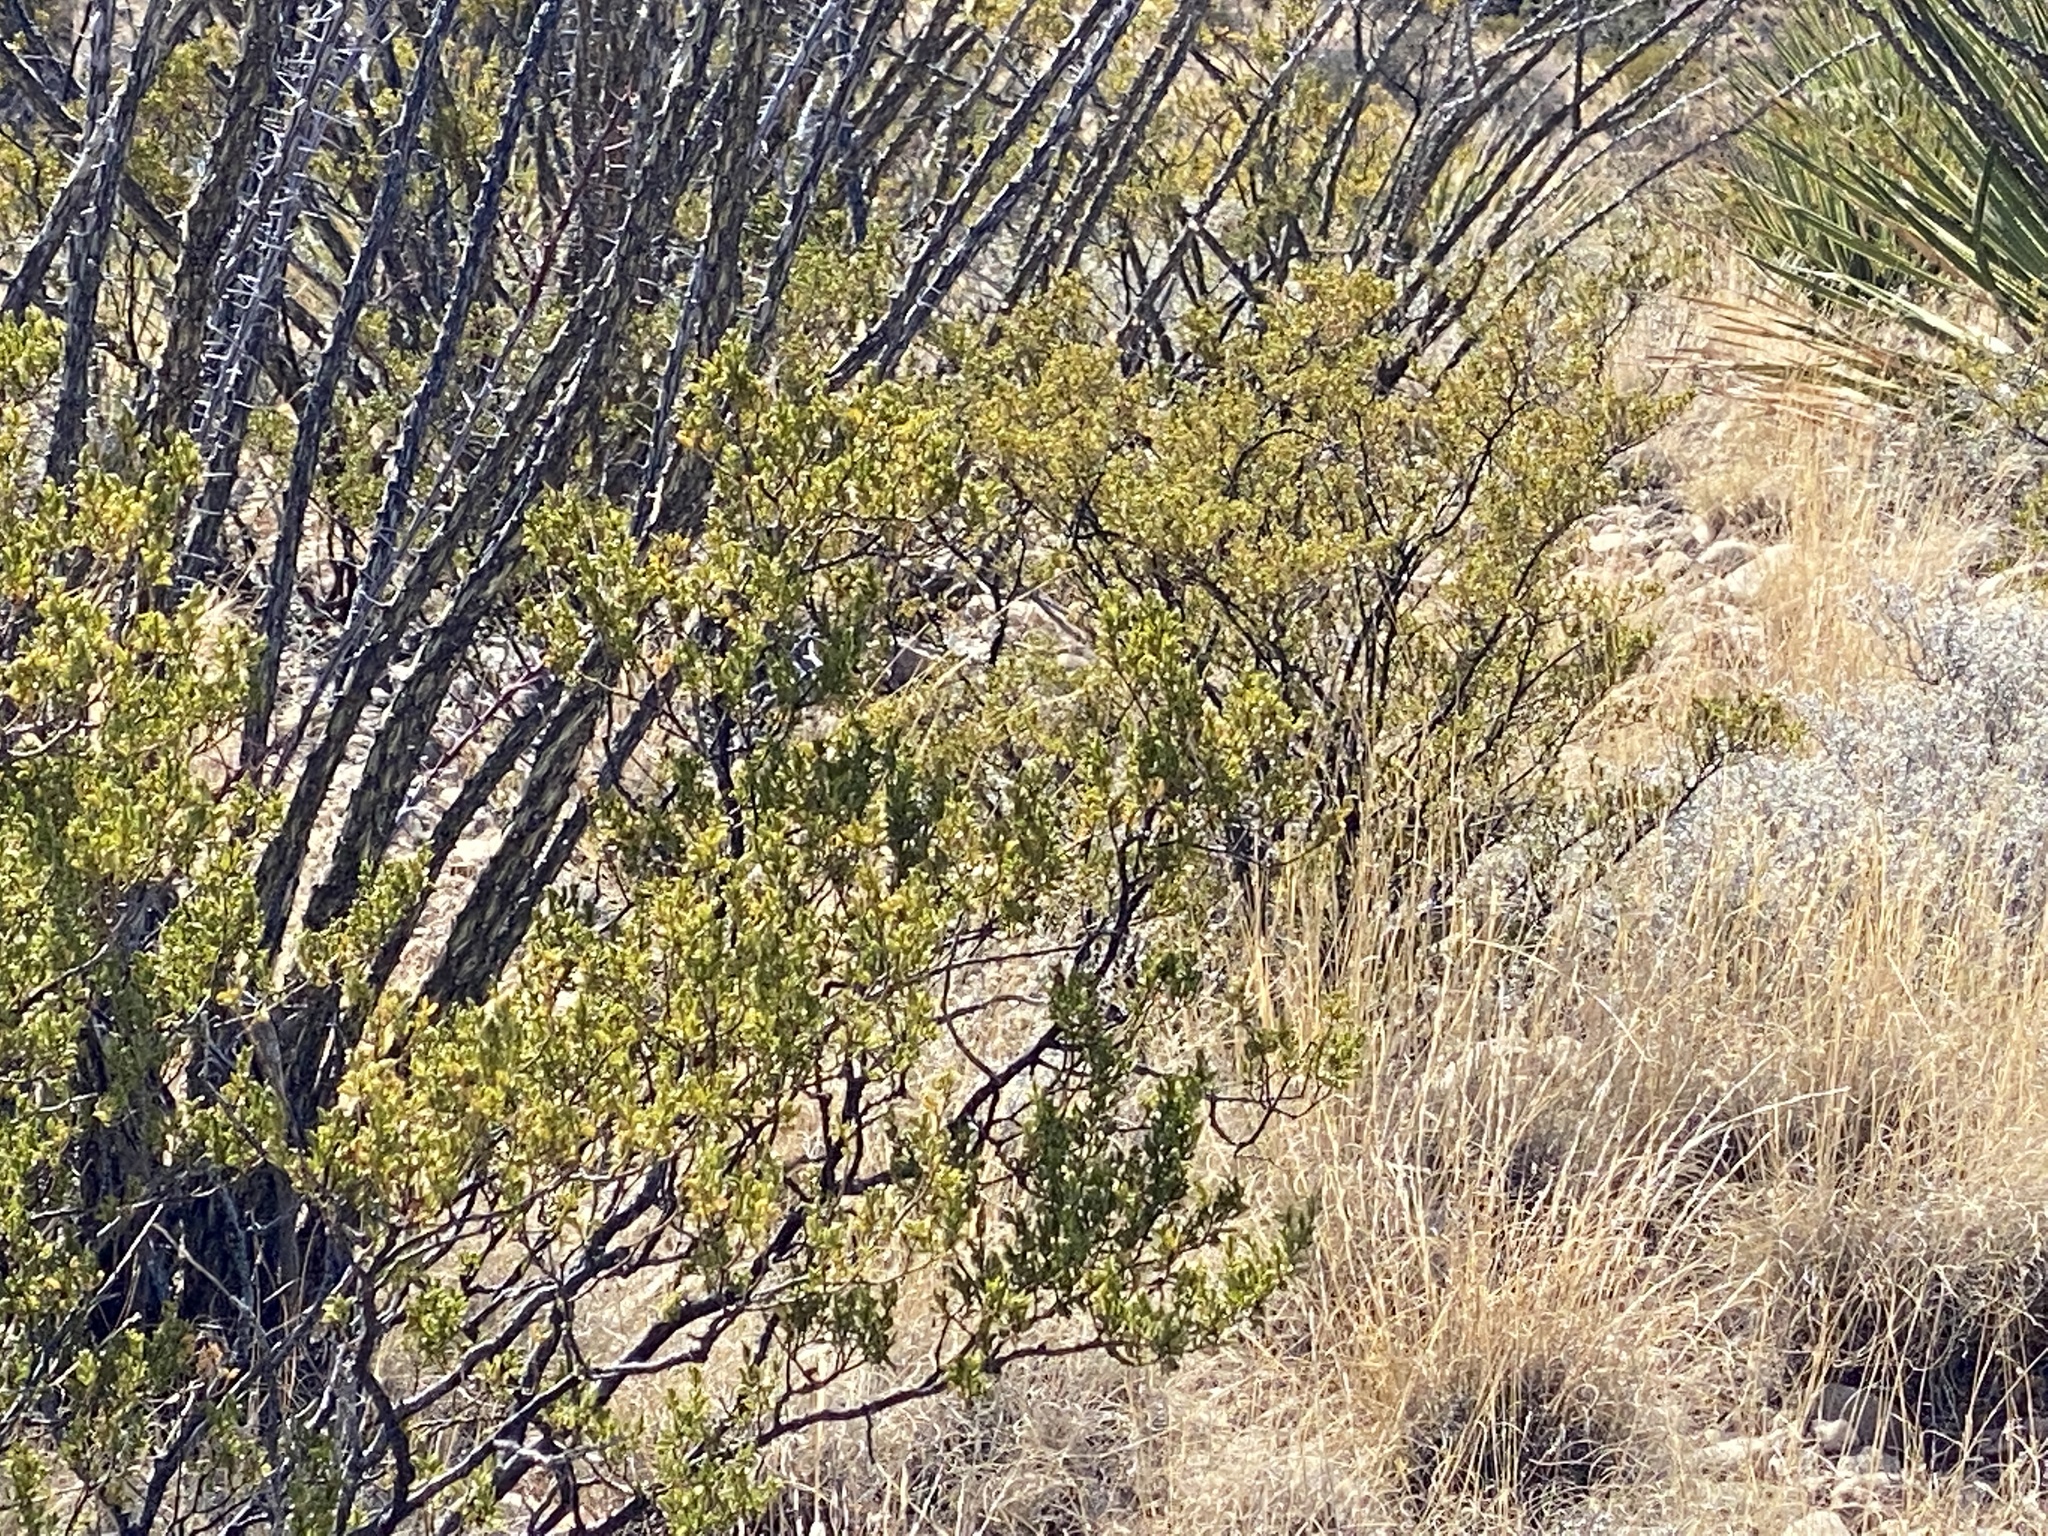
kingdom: Plantae
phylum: Tracheophyta
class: Magnoliopsida
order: Zygophyllales
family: Zygophyllaceae
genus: Larrea
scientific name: Larrea tridentata
